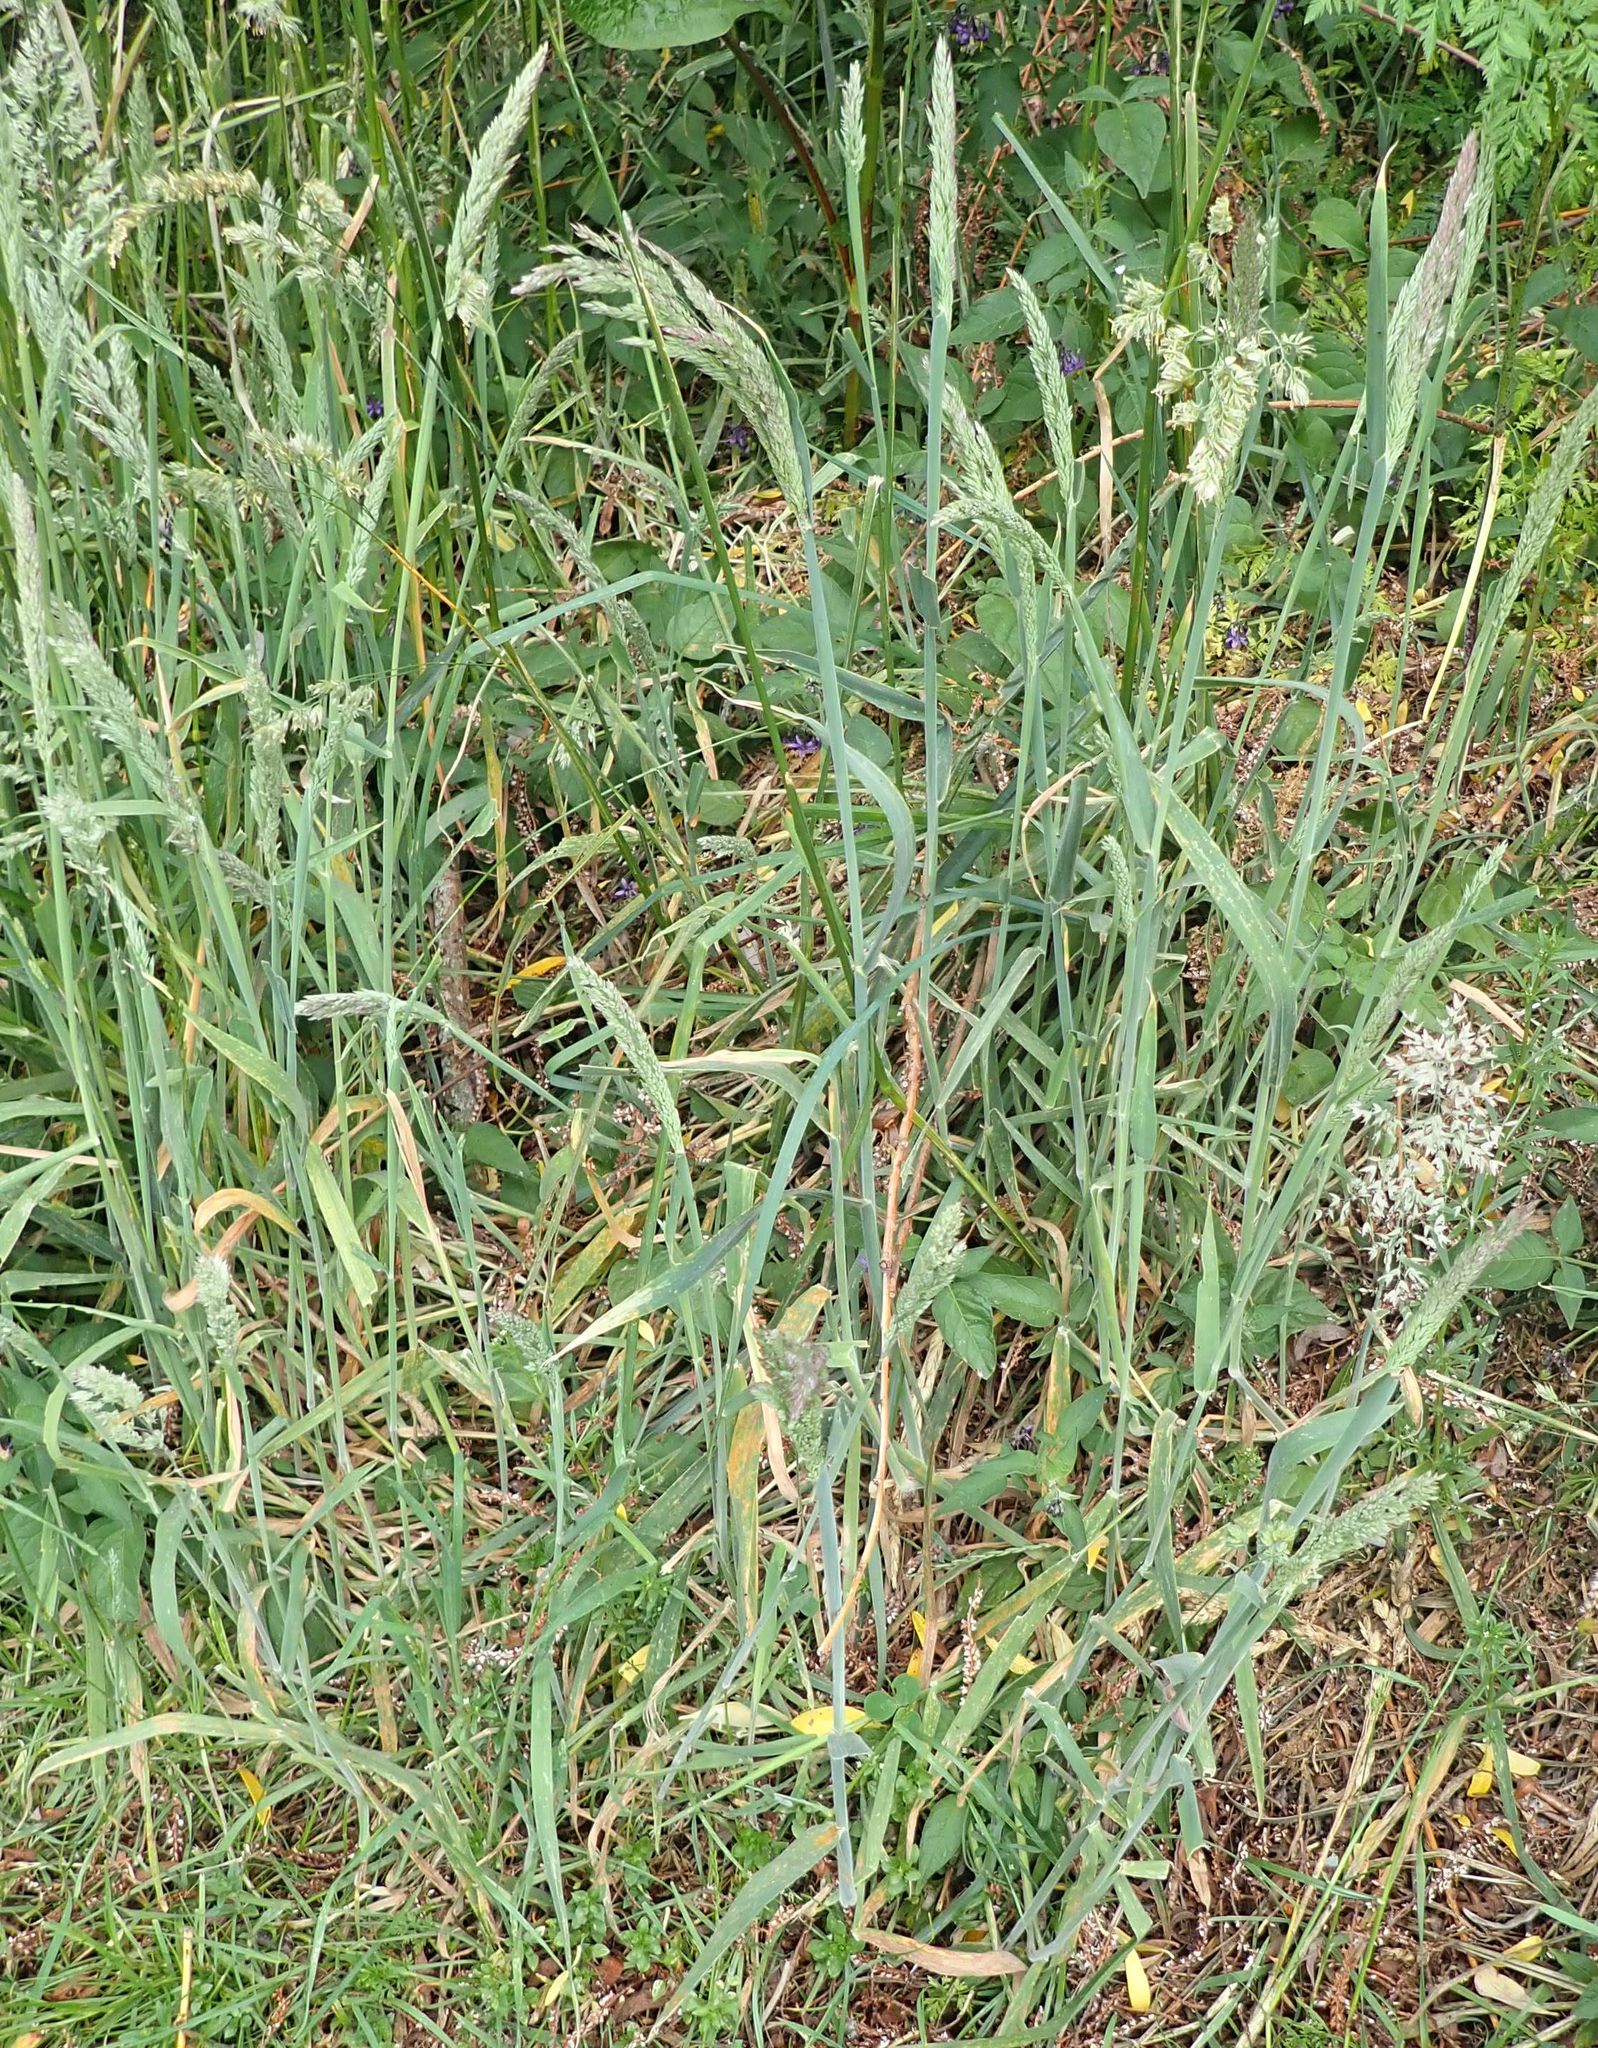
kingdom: Plantae
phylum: Tracheophyta
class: Liliopsida
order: Poales
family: Poaceae
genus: Holcus
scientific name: Holcus lanatus
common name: Yorkshire-fog
